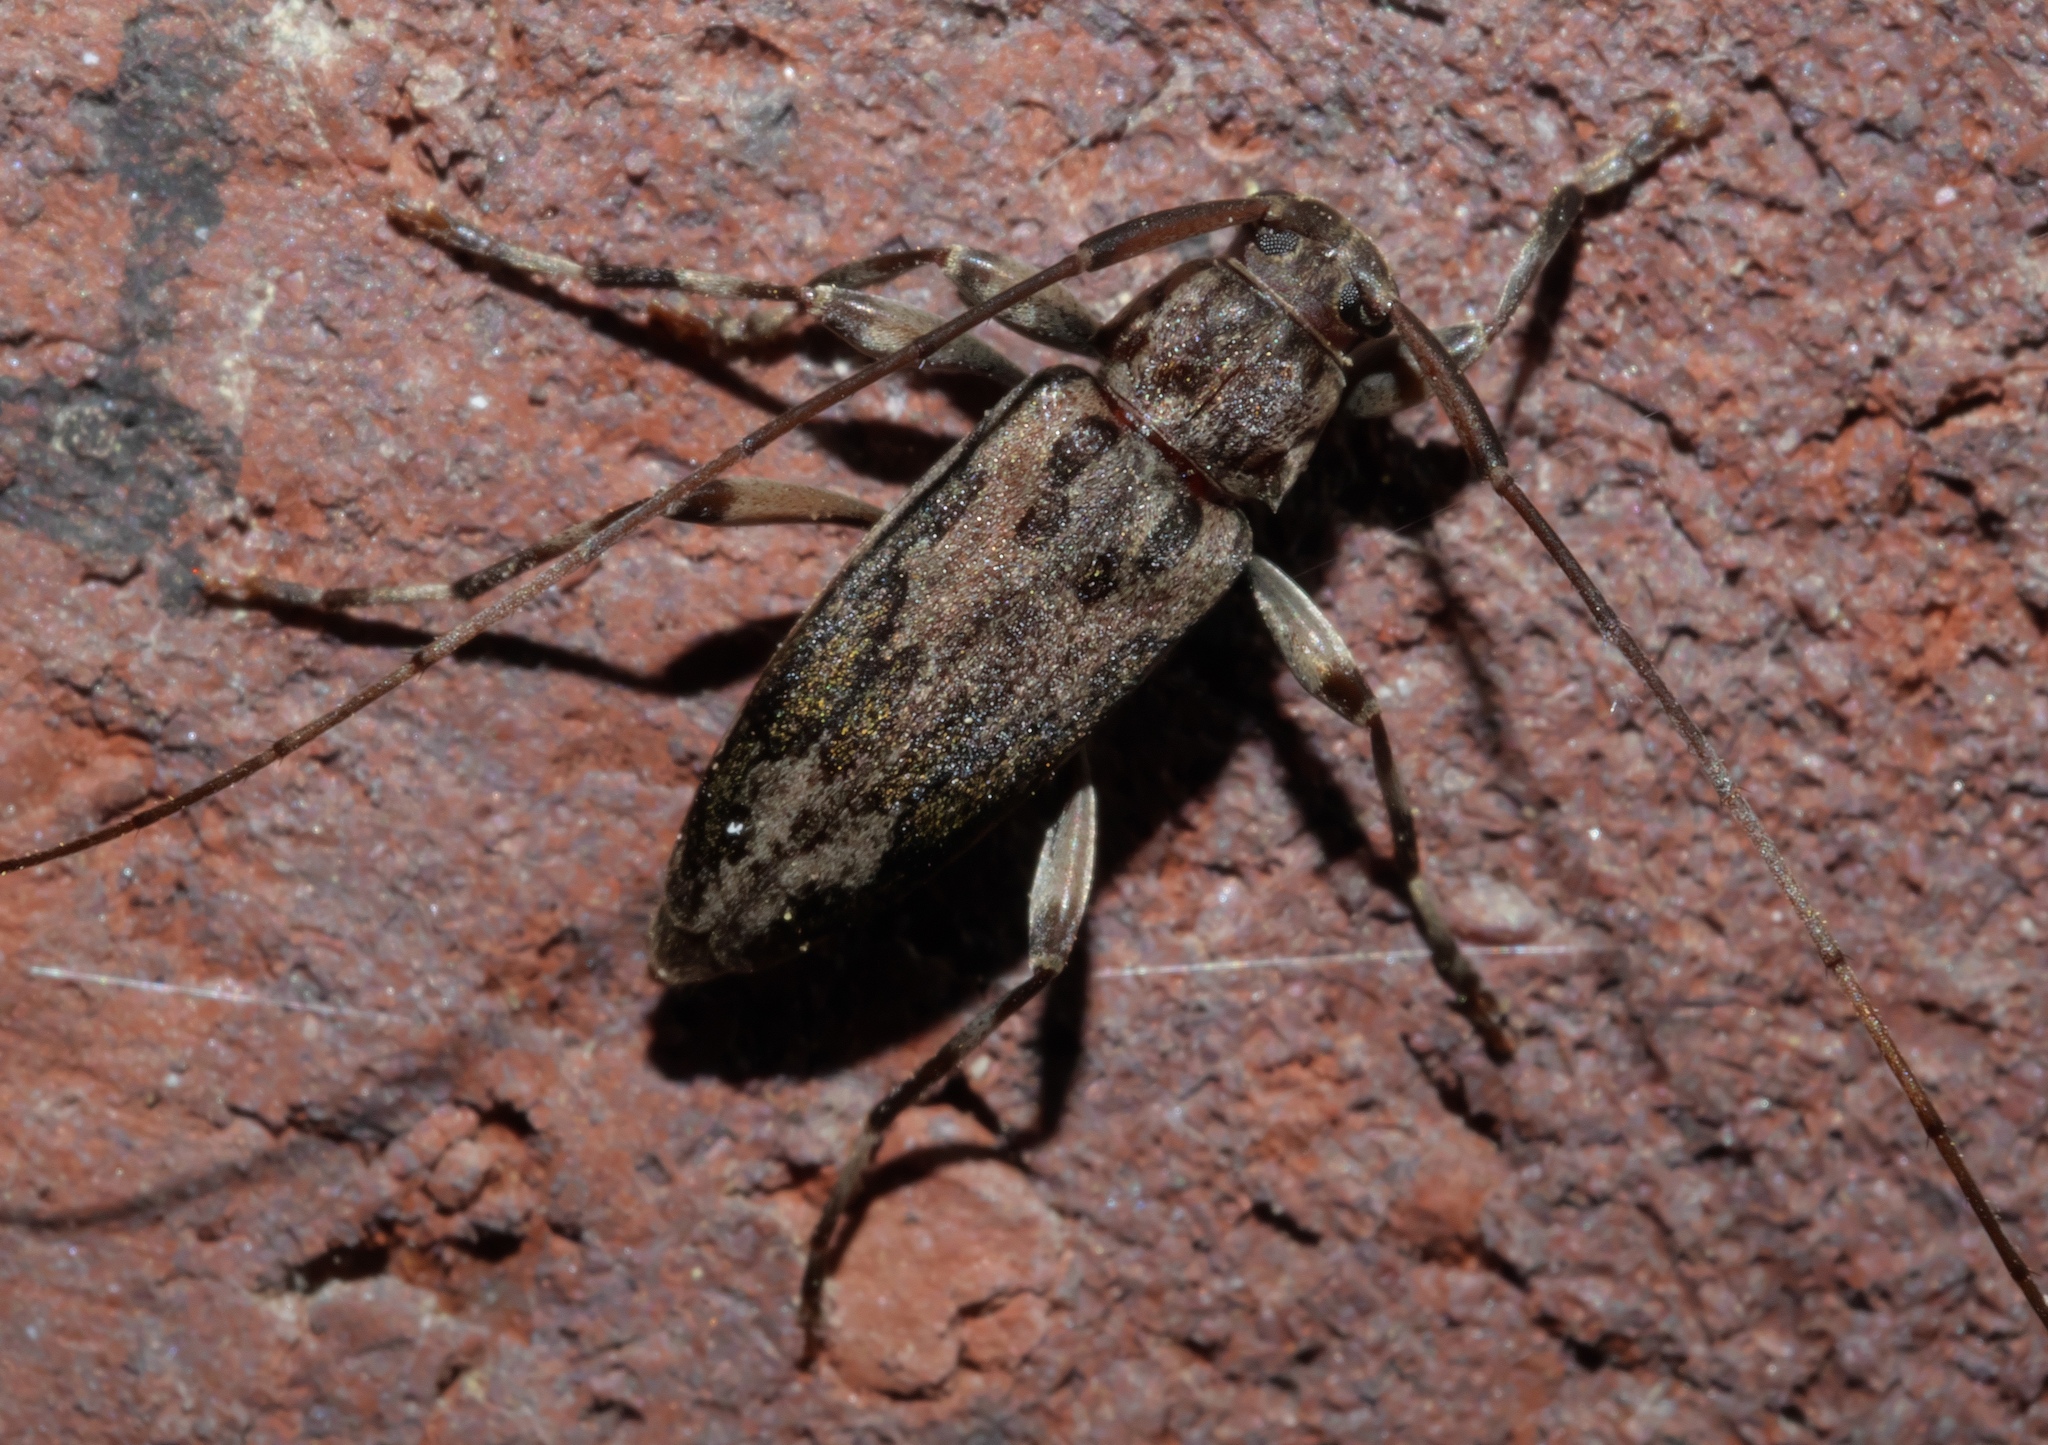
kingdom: Animalia
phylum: Arthropoda
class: Insecta
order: Coleoptera
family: Cerambycidae
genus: Lepturges
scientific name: Lepturges confluens
